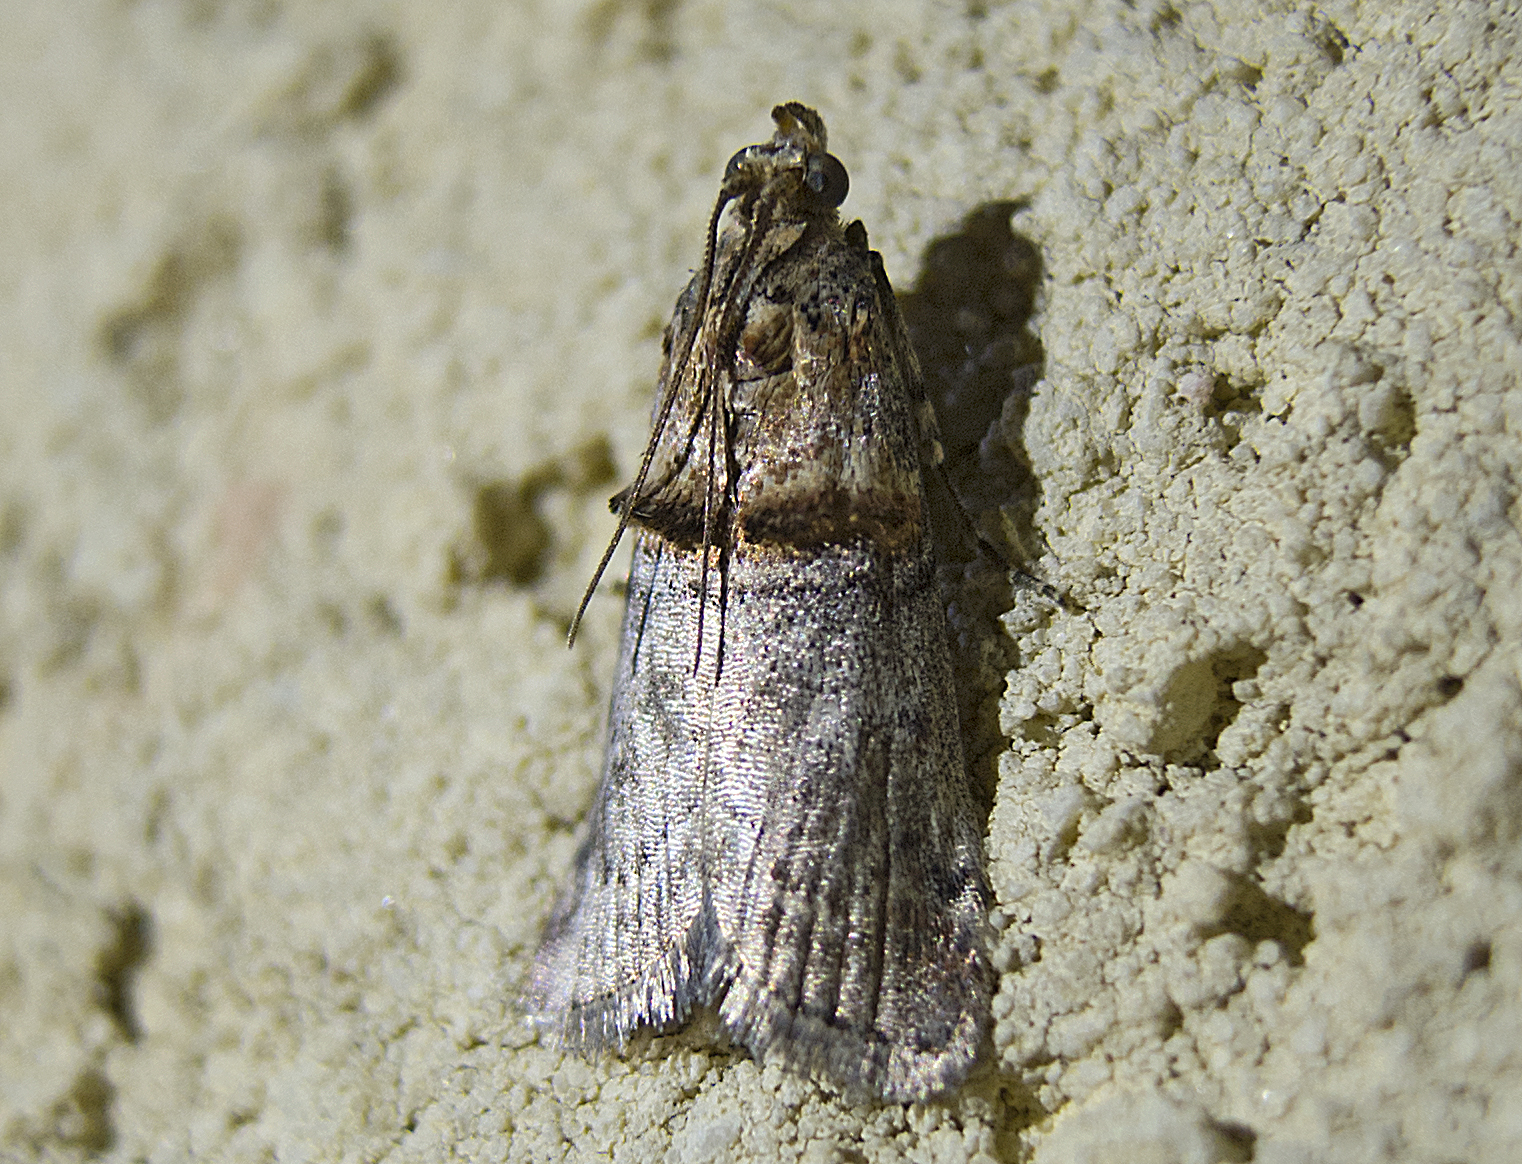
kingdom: Animalia
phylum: Arthropoda
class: Insecta
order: Lepidoptera
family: Pyralidae
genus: Trachonitis
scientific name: Trachonitis cristella
